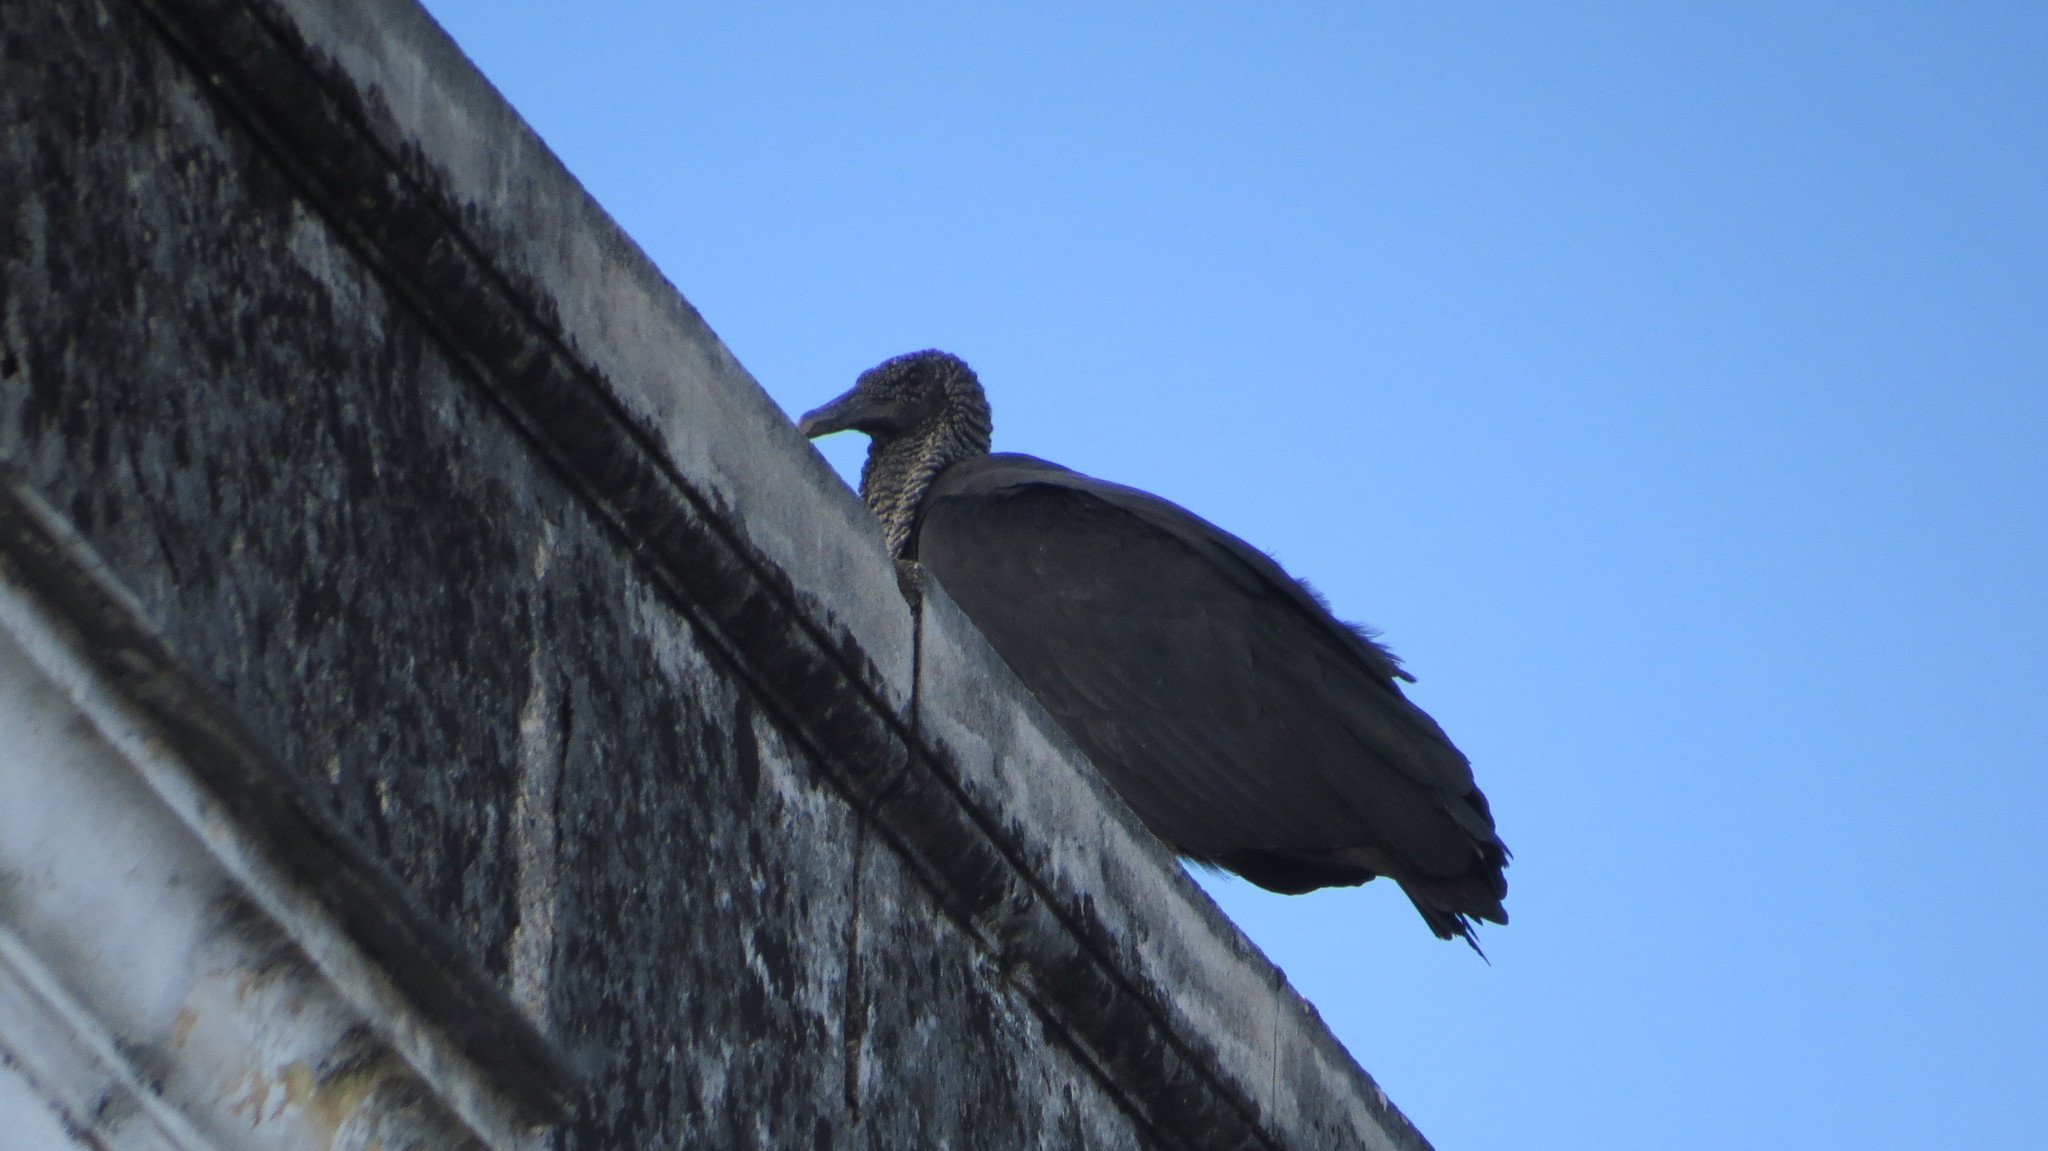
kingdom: Animalia
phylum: Chordata
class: Aves
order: Accipitriformes
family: Cathartidae
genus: Coragyps
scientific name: Coragyps atratus
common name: Black vulture
